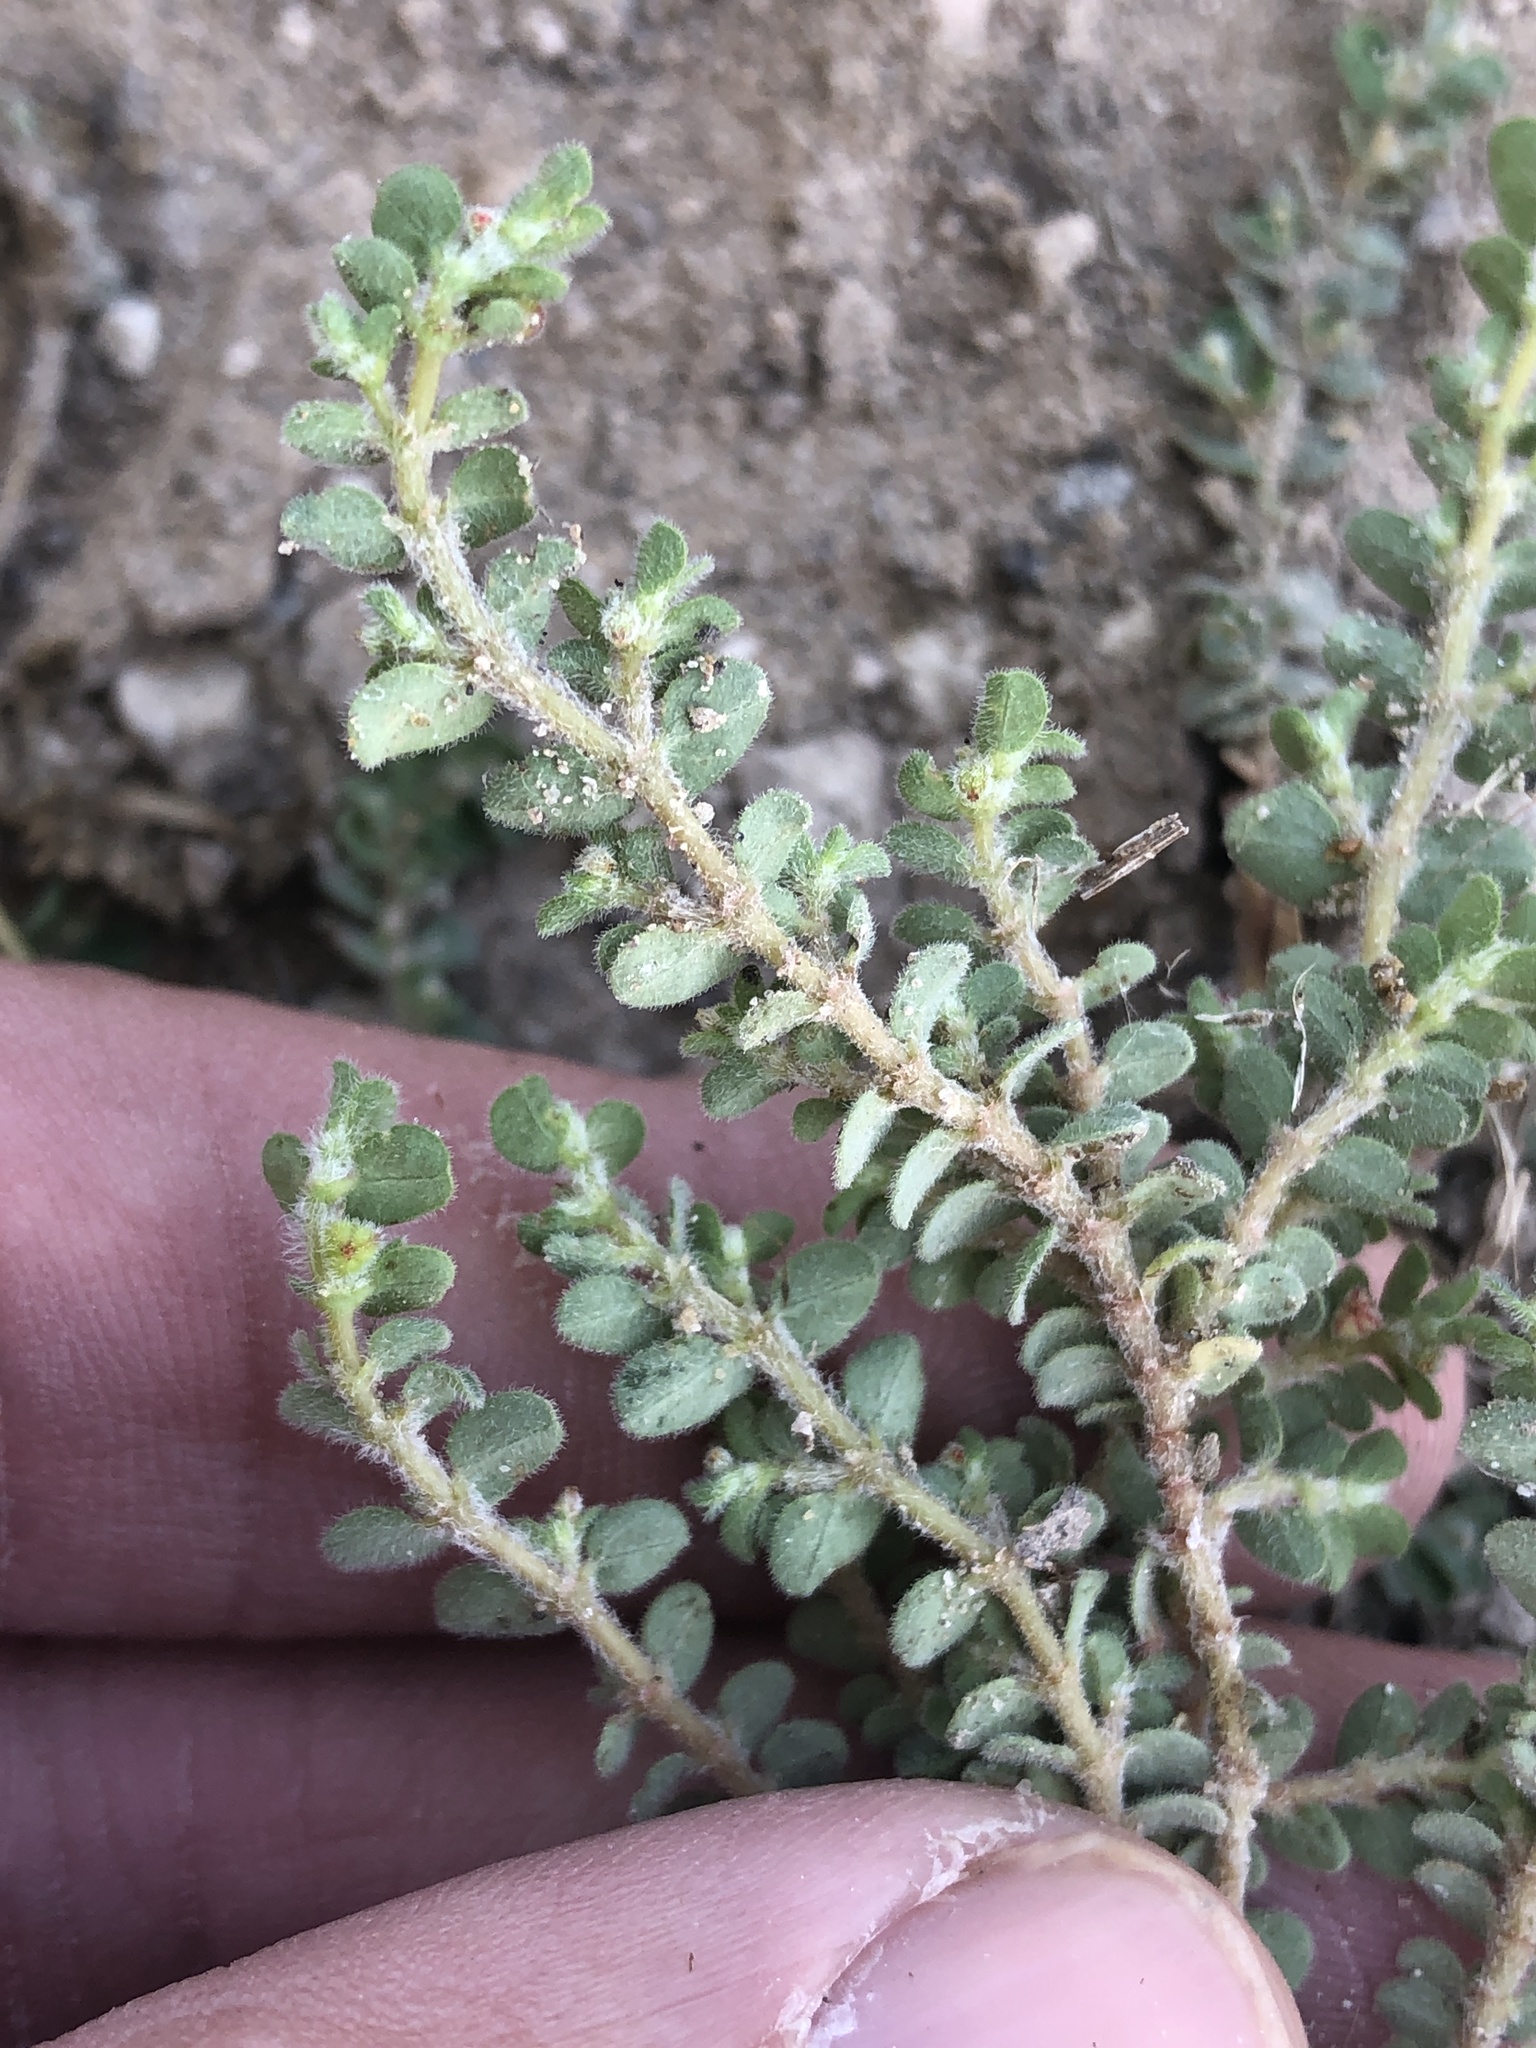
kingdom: Plantae
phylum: Tracheophyta
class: Magnoliopsida
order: Malpighiales
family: Euphorbiaceae
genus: Euphorbia
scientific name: Euphorbia laredana
